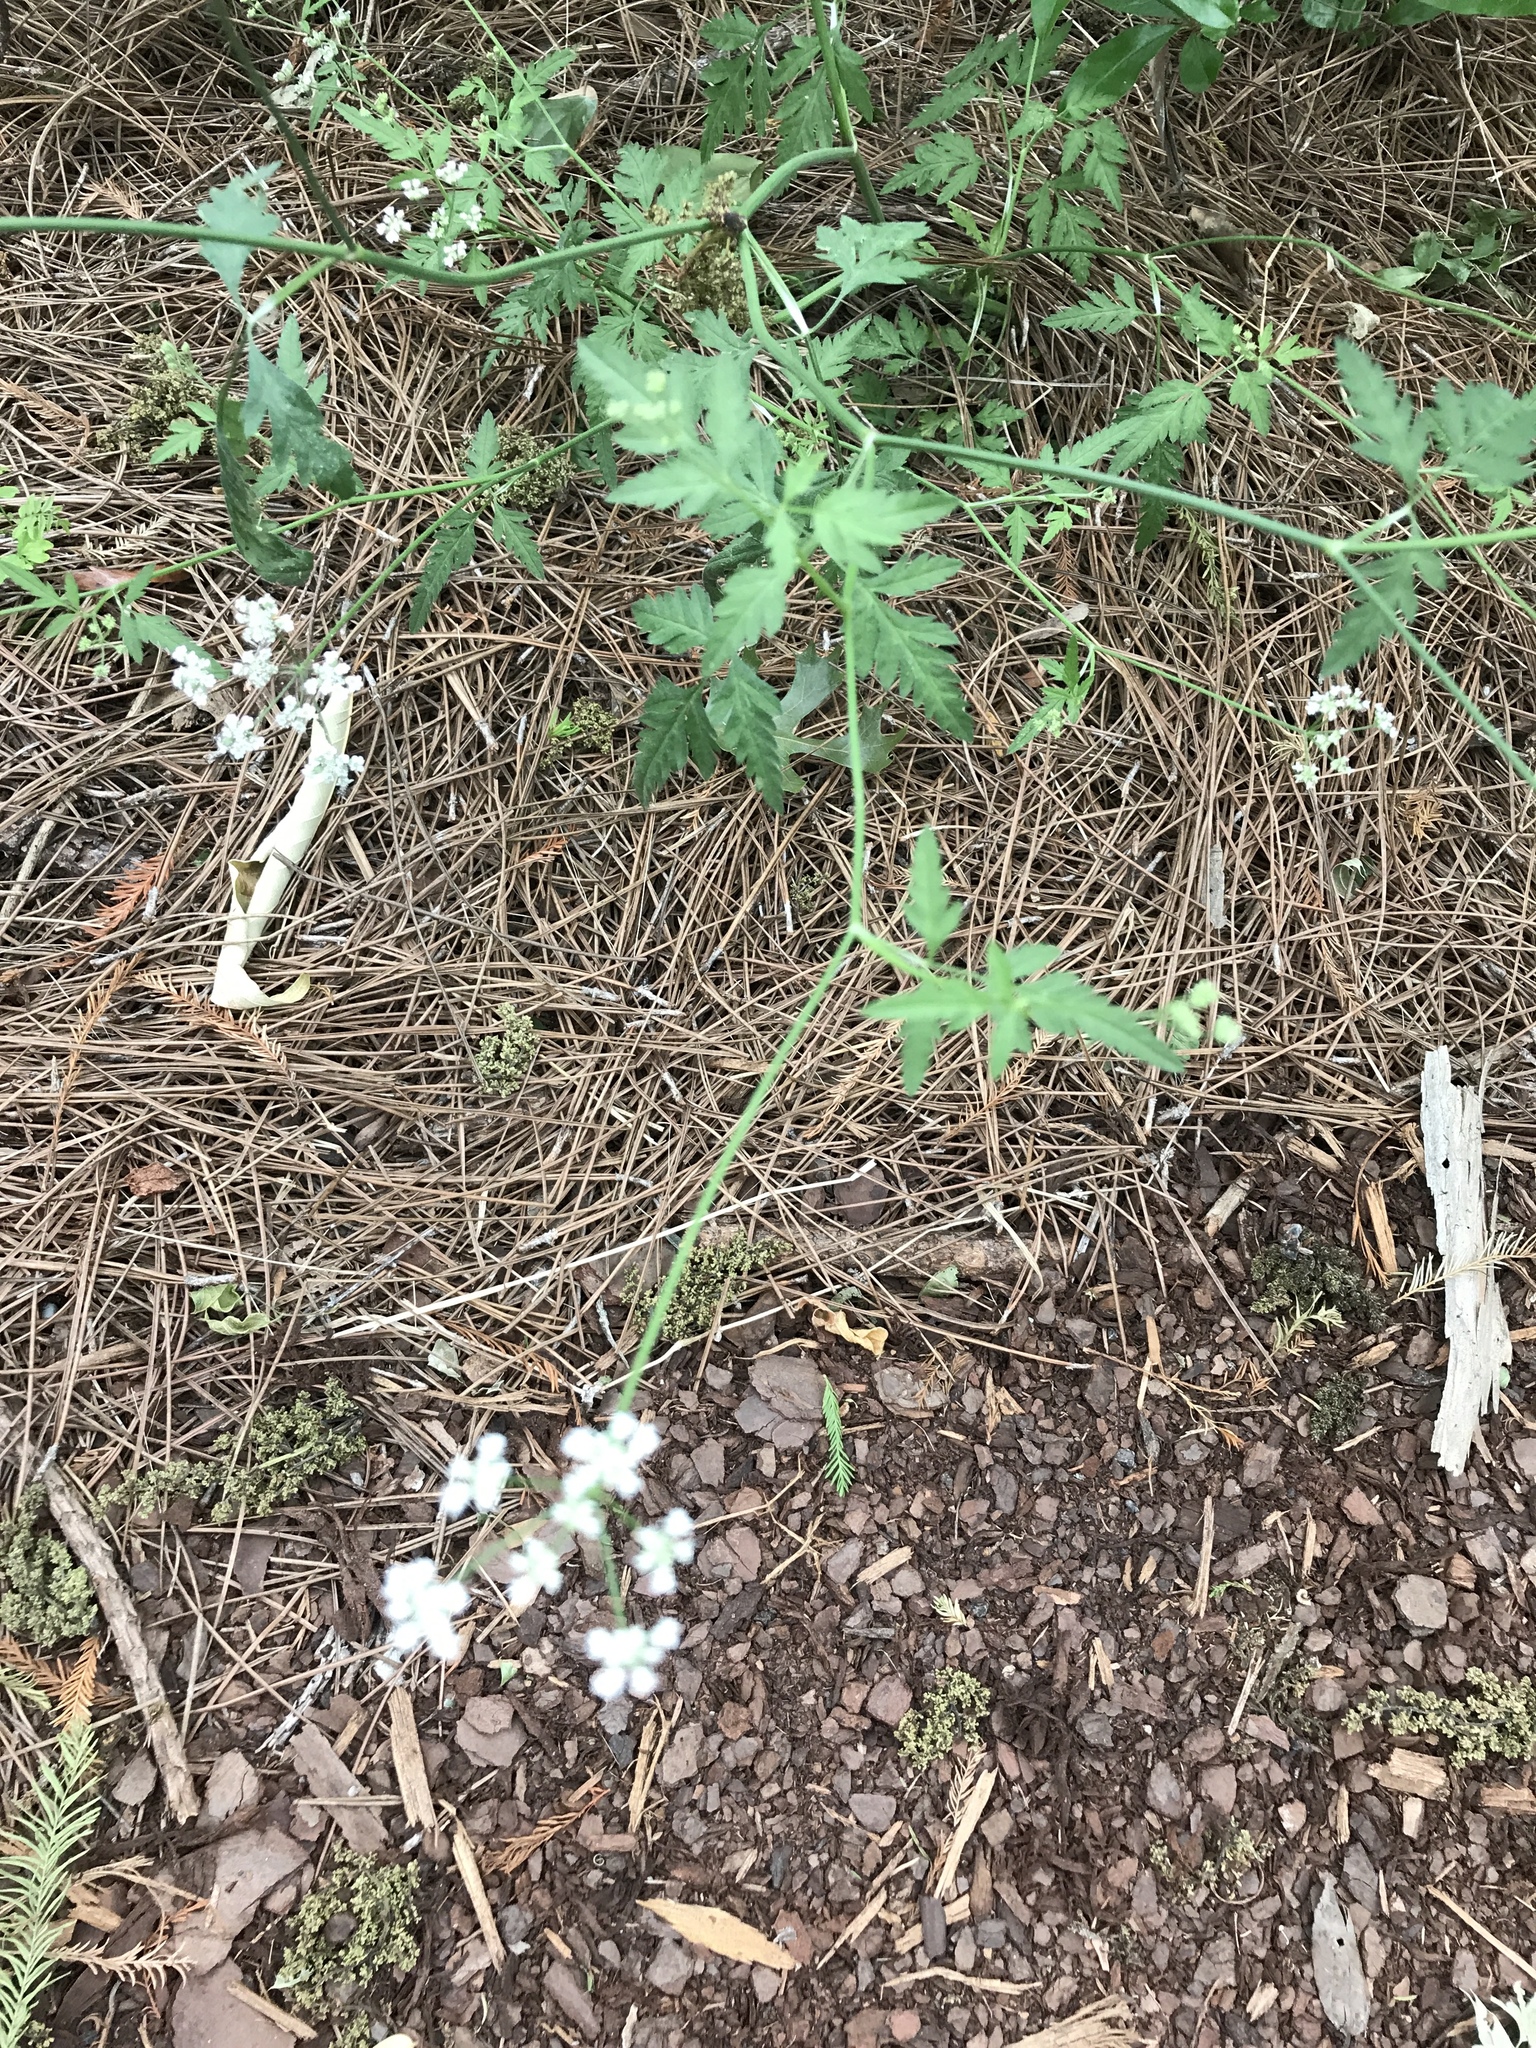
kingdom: Plantae
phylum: Tracheophyta
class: Magnoliopsida
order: Apiales
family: Apiaceae
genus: Torilis
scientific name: Torilis arvensis
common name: Spreading hedge-parsley
